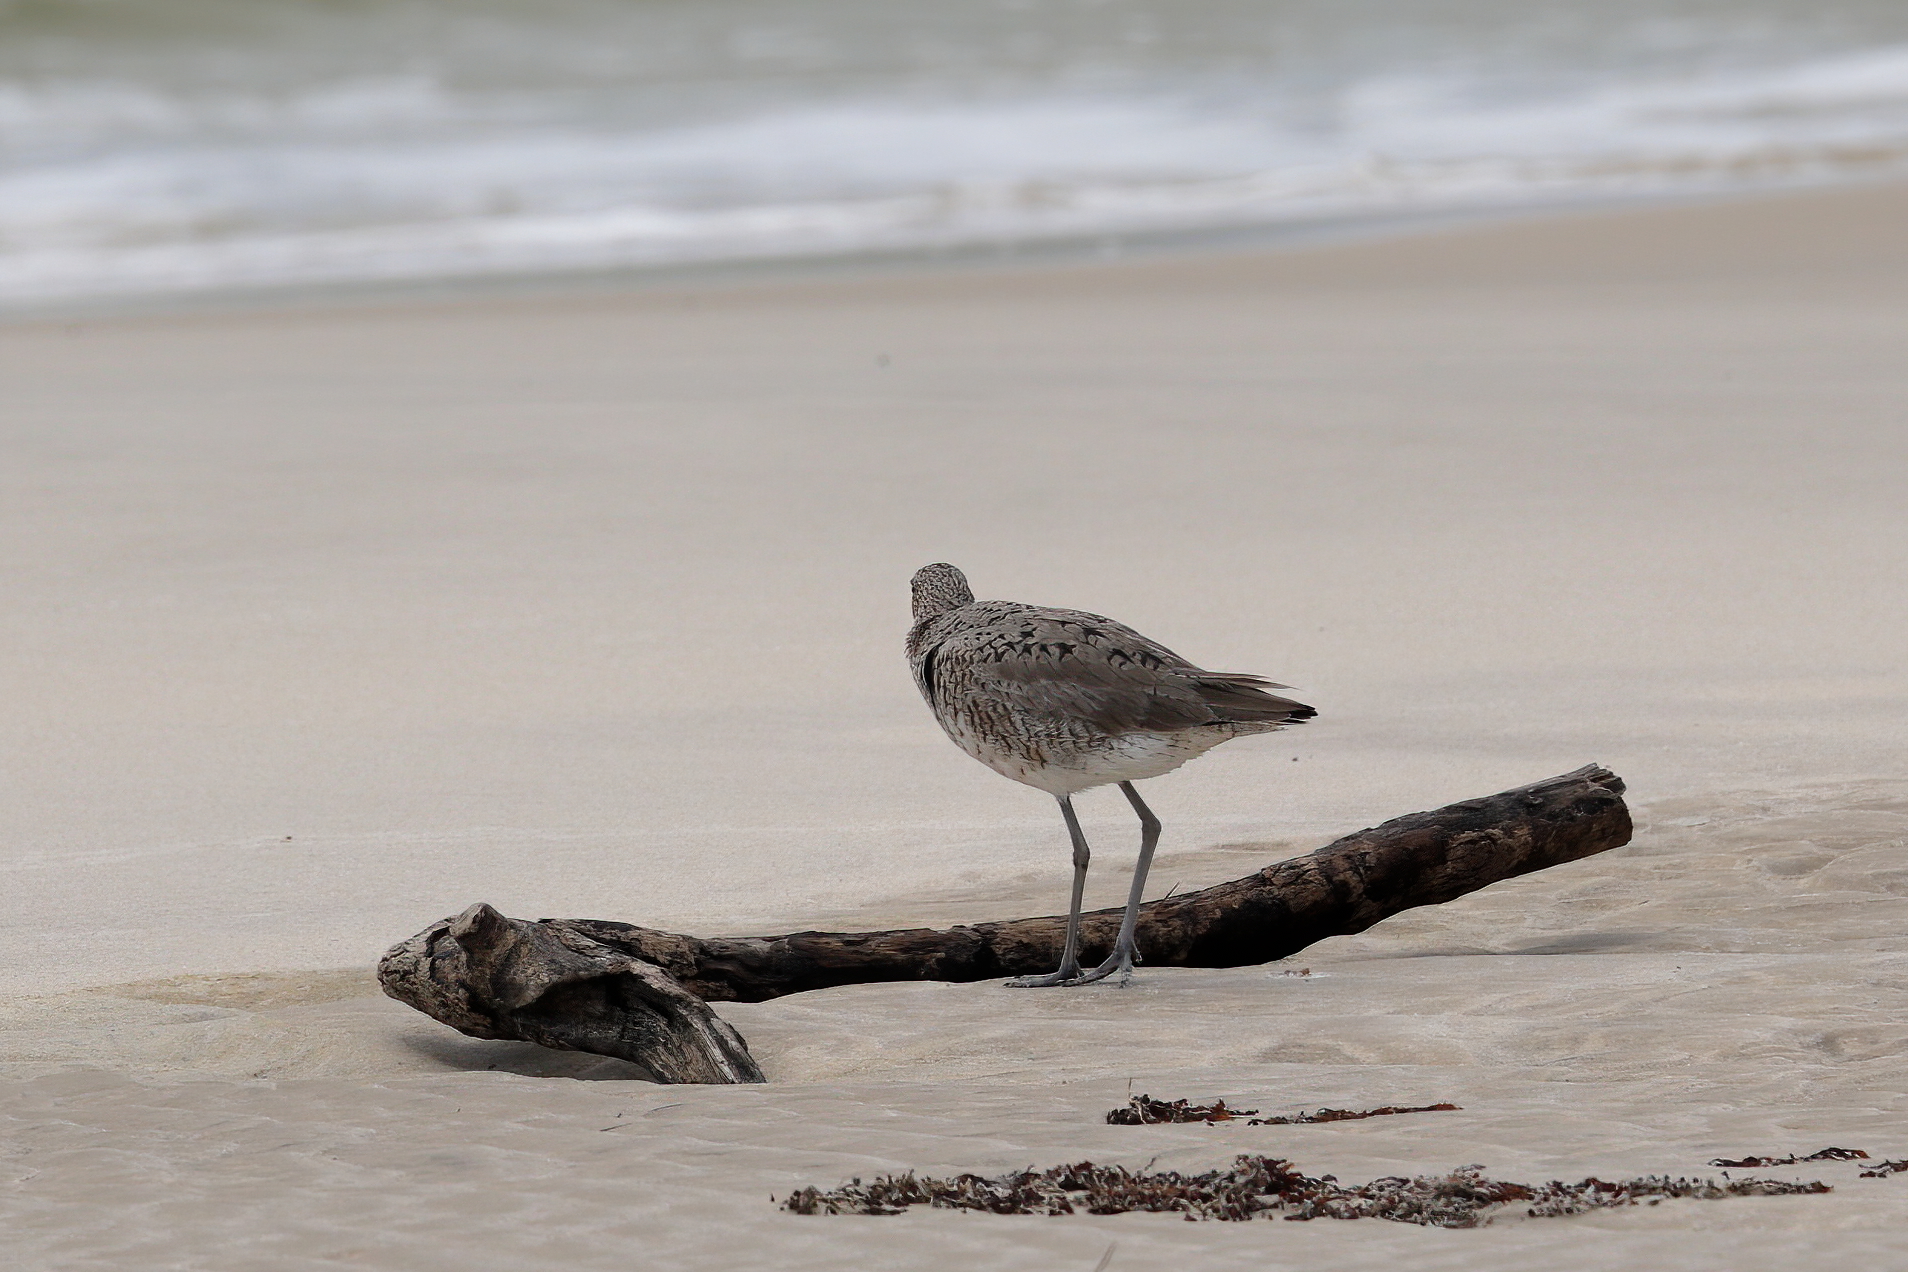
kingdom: Animalia
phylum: Chordata
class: Aves
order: Charadriiformes
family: Scolopacidae
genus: Tringa
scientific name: Tringa semipalmata
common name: Willet
